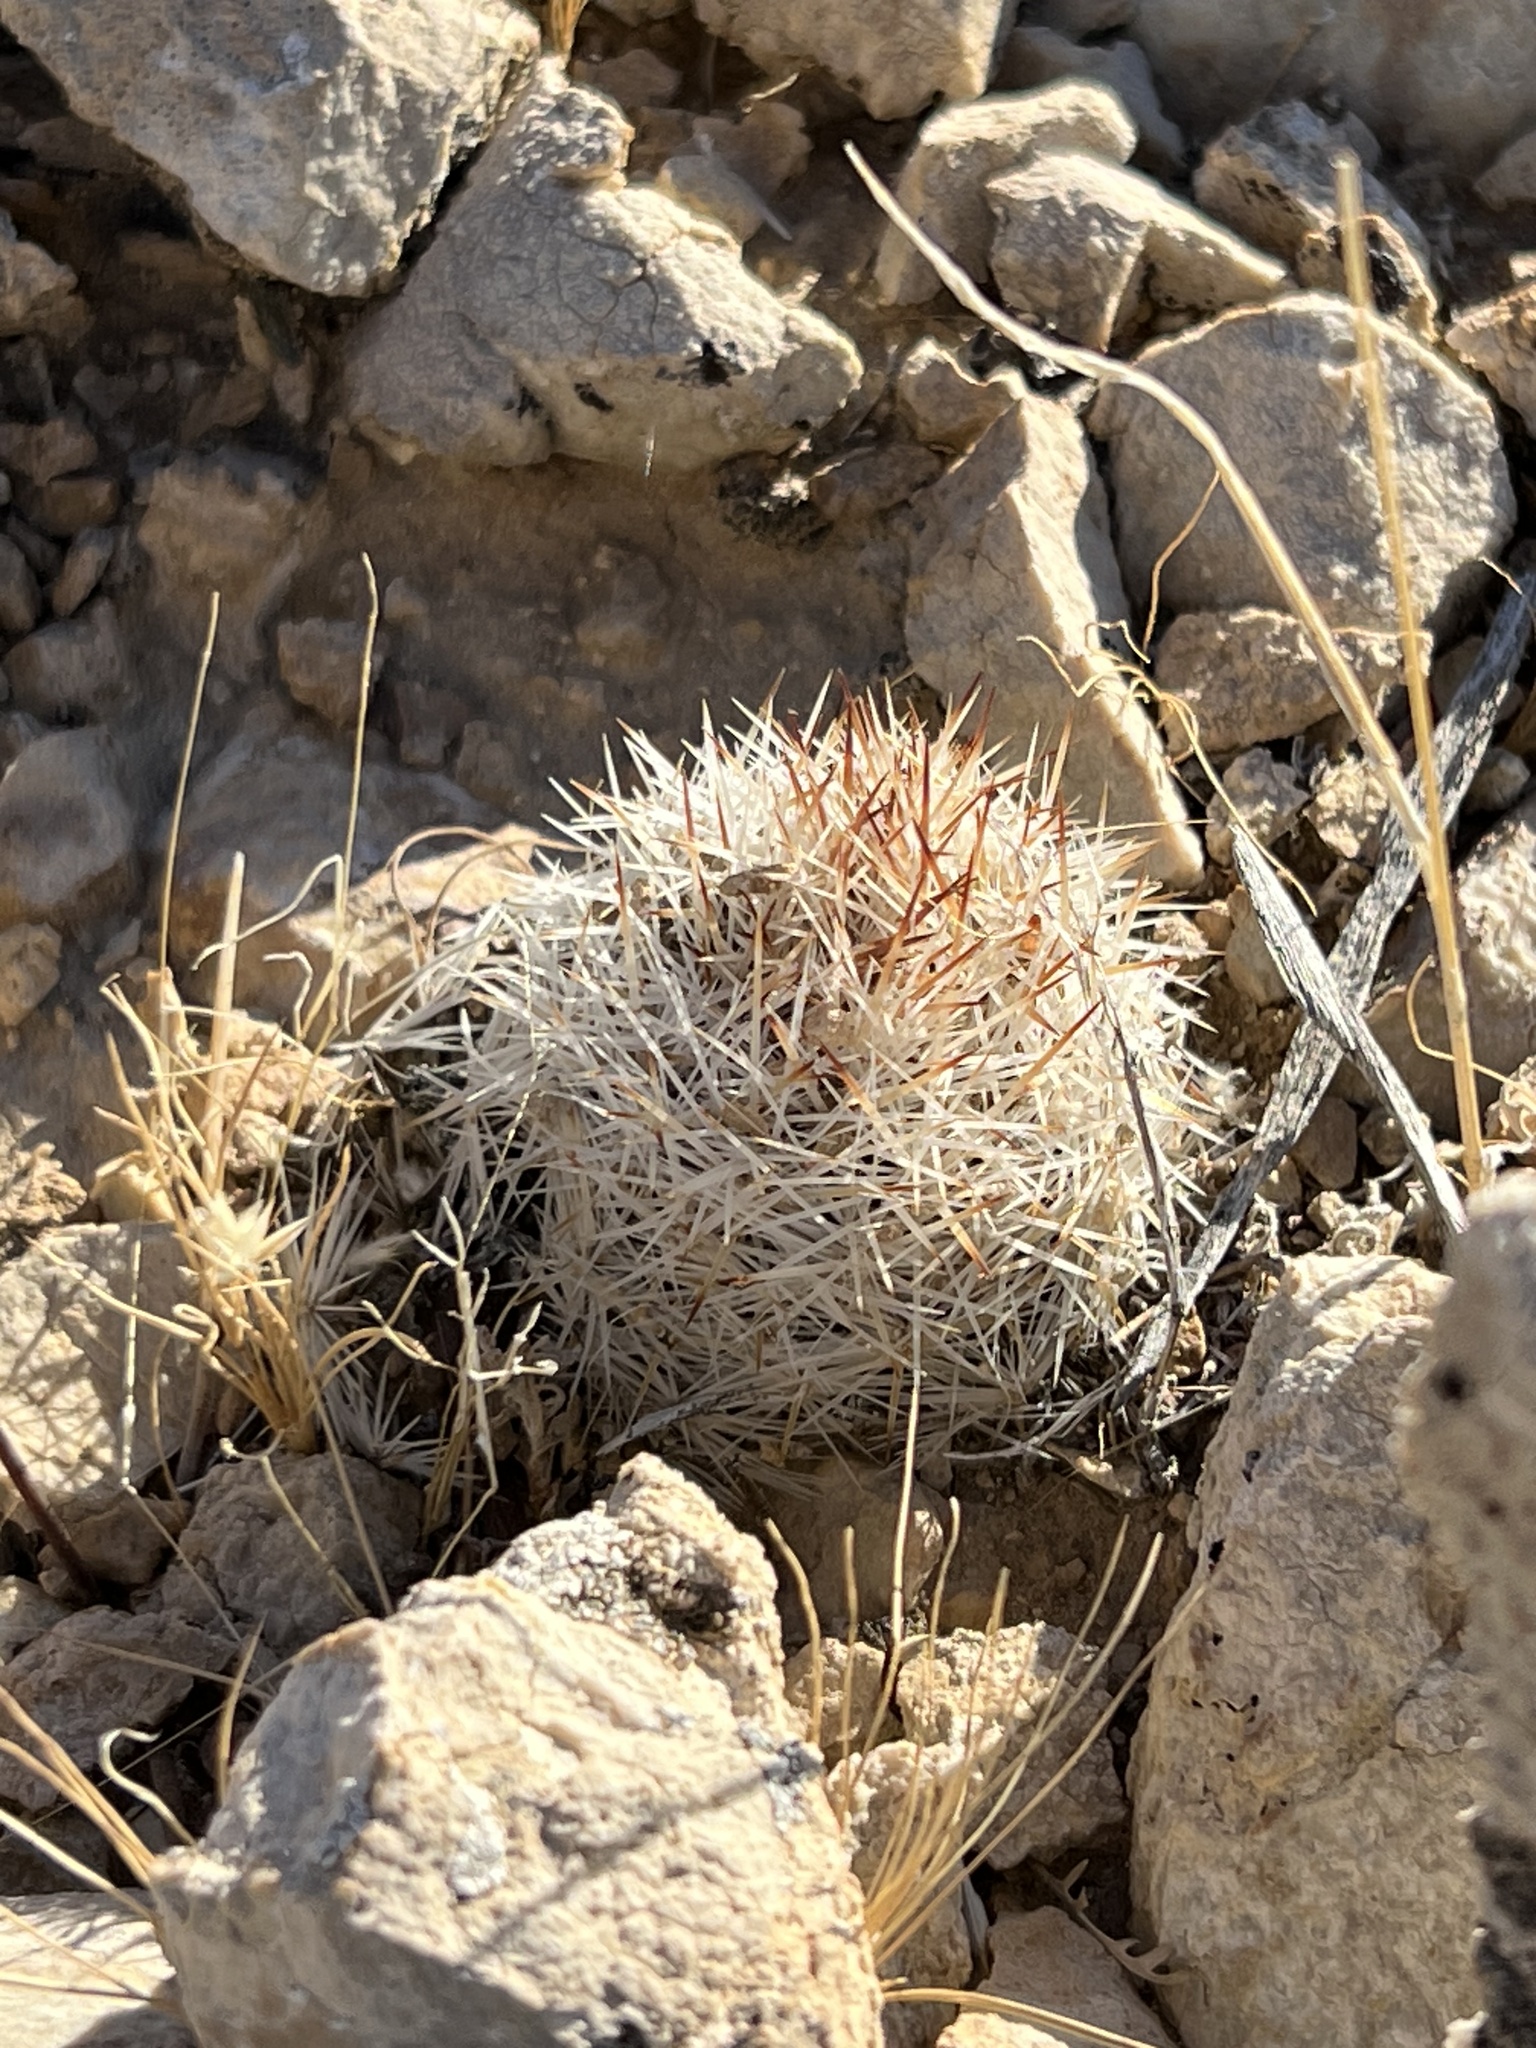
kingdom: Plantae
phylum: Tracheophyta
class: Magnoliopsida
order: Caryophyllales
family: Cactaceae
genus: Pelecyphora
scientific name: Pelecyphora dasyacantha
